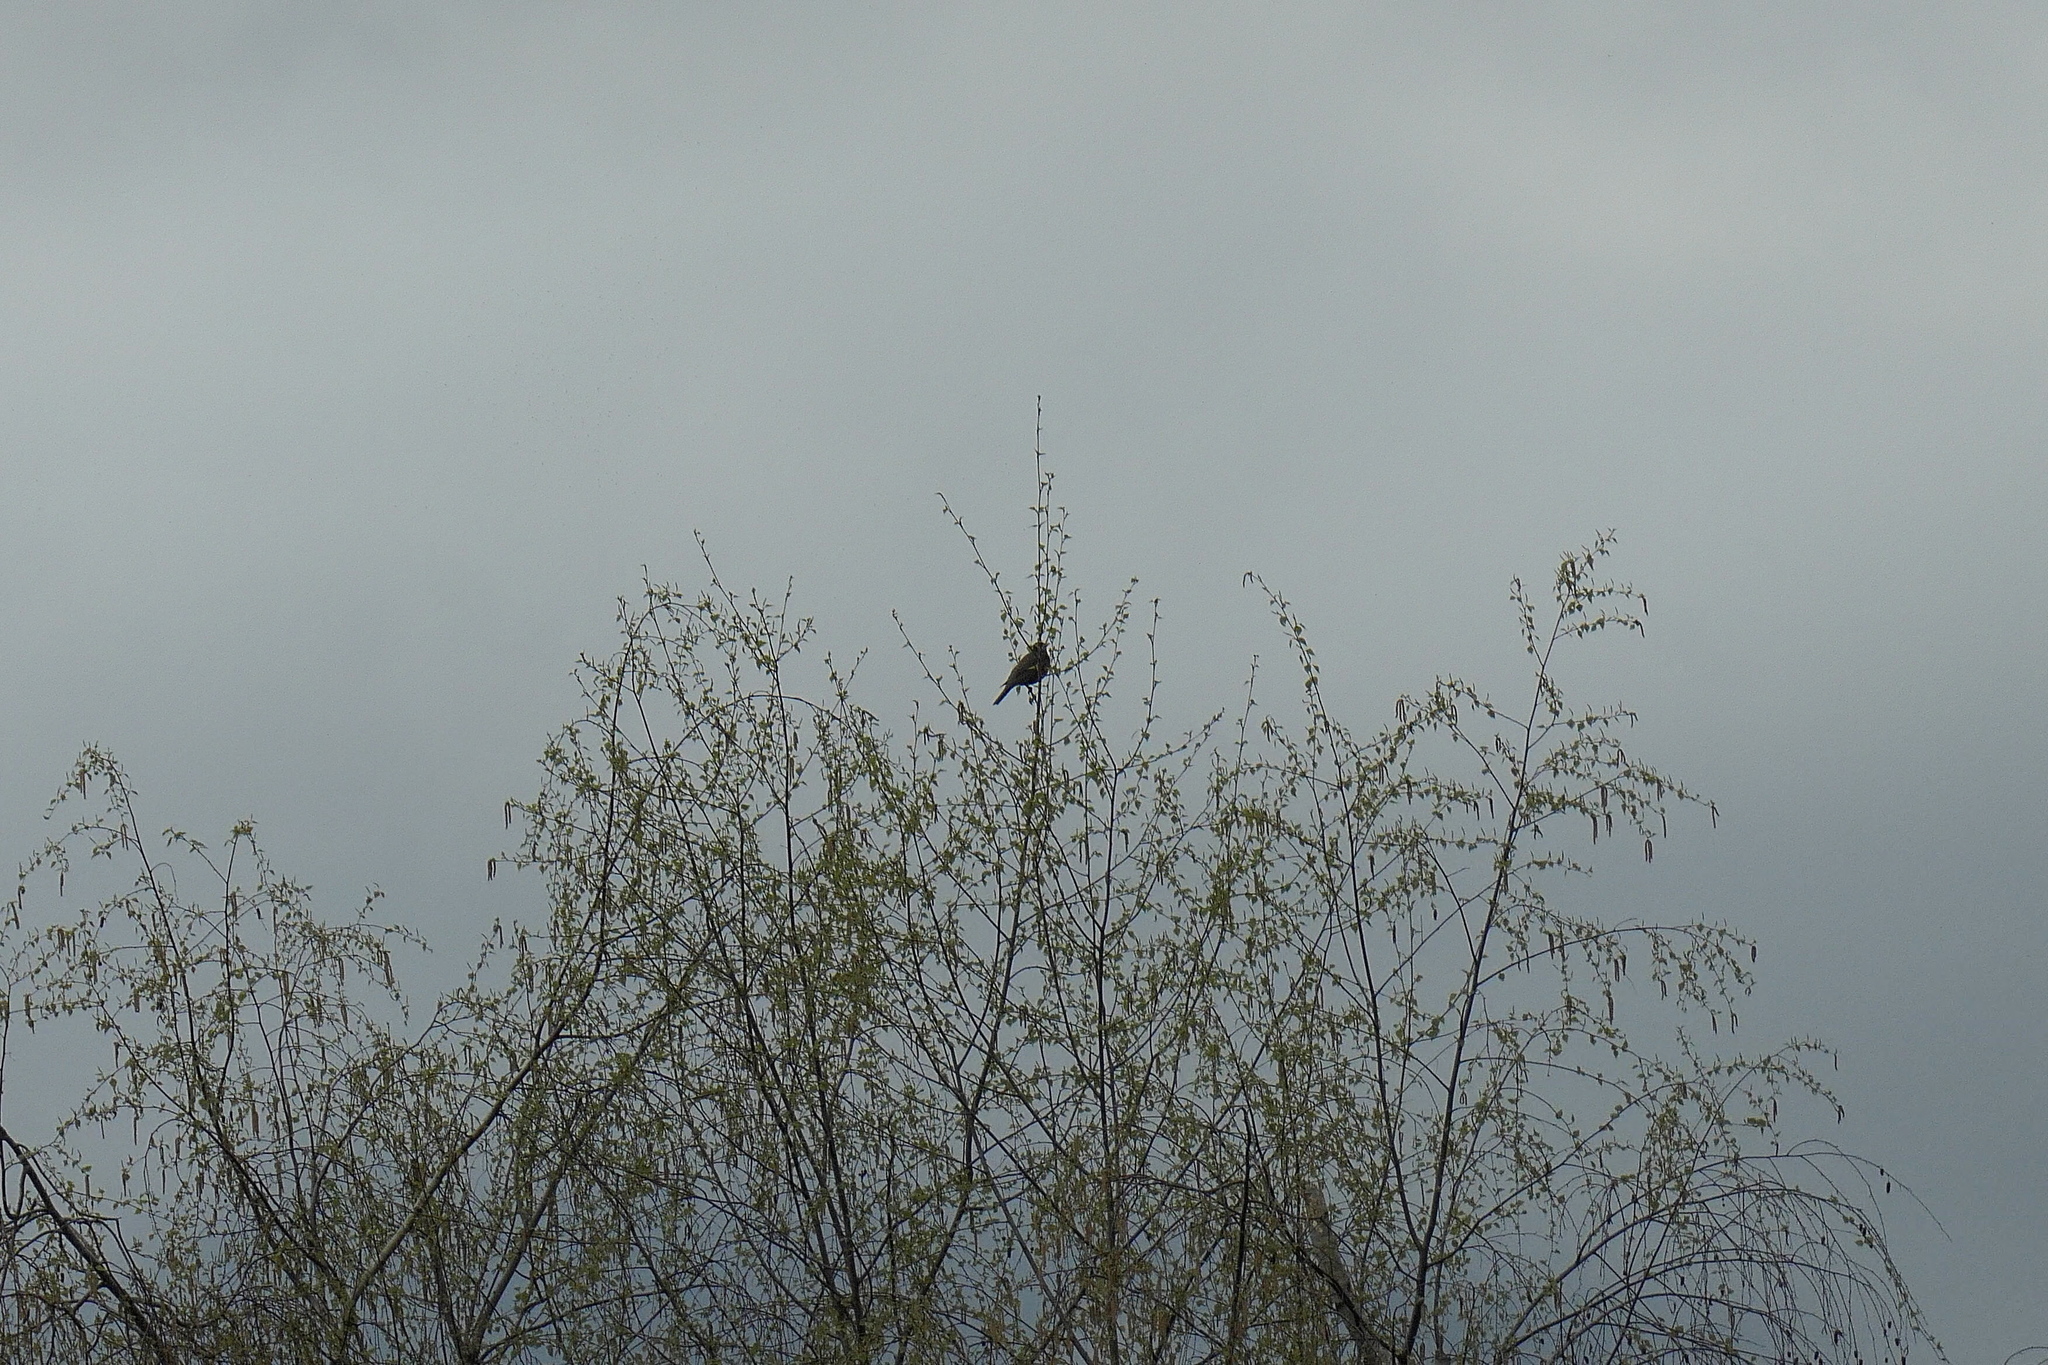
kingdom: Animalia
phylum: Chordata
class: Aves
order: Passeriformes
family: Turdidae
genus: Turdus
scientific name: Turdus migratorius
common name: American robin
